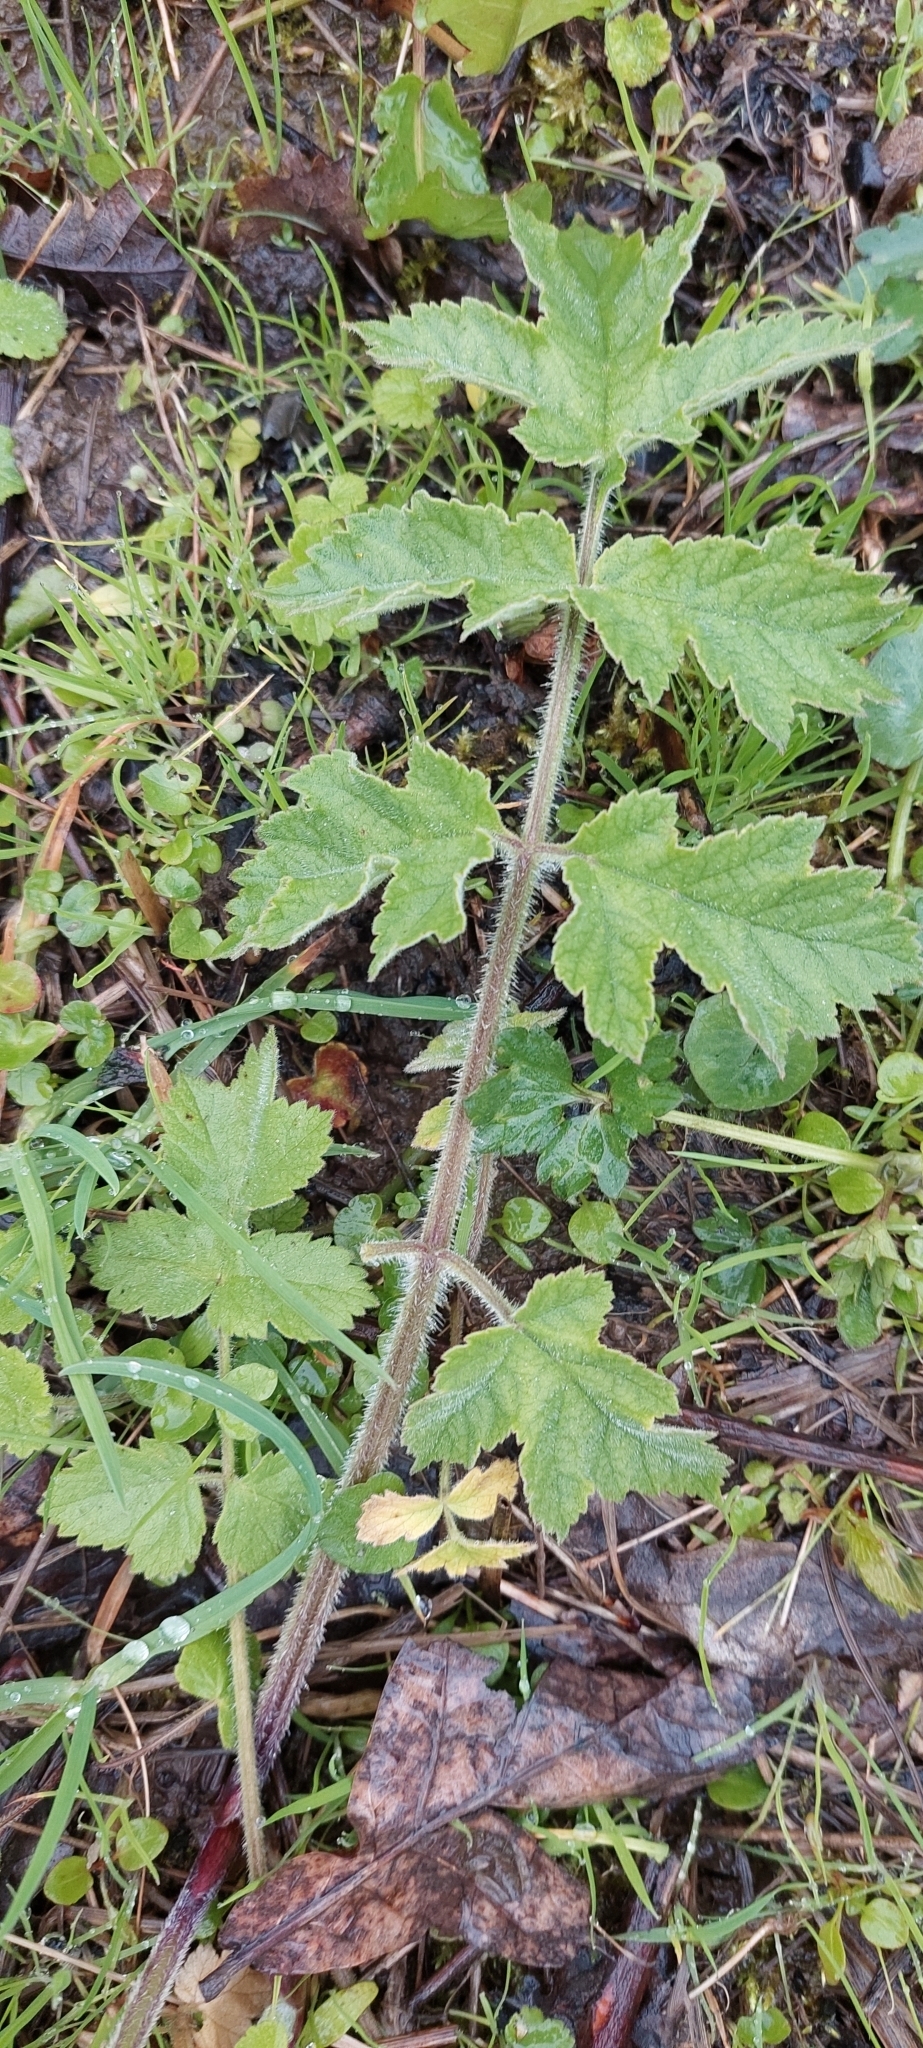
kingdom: Plantae
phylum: Tracheophyta
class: Magnoliopsida
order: Apiales
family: Apiaceae
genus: Heracleum
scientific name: Heracleum sphondylium
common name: Hogweed
